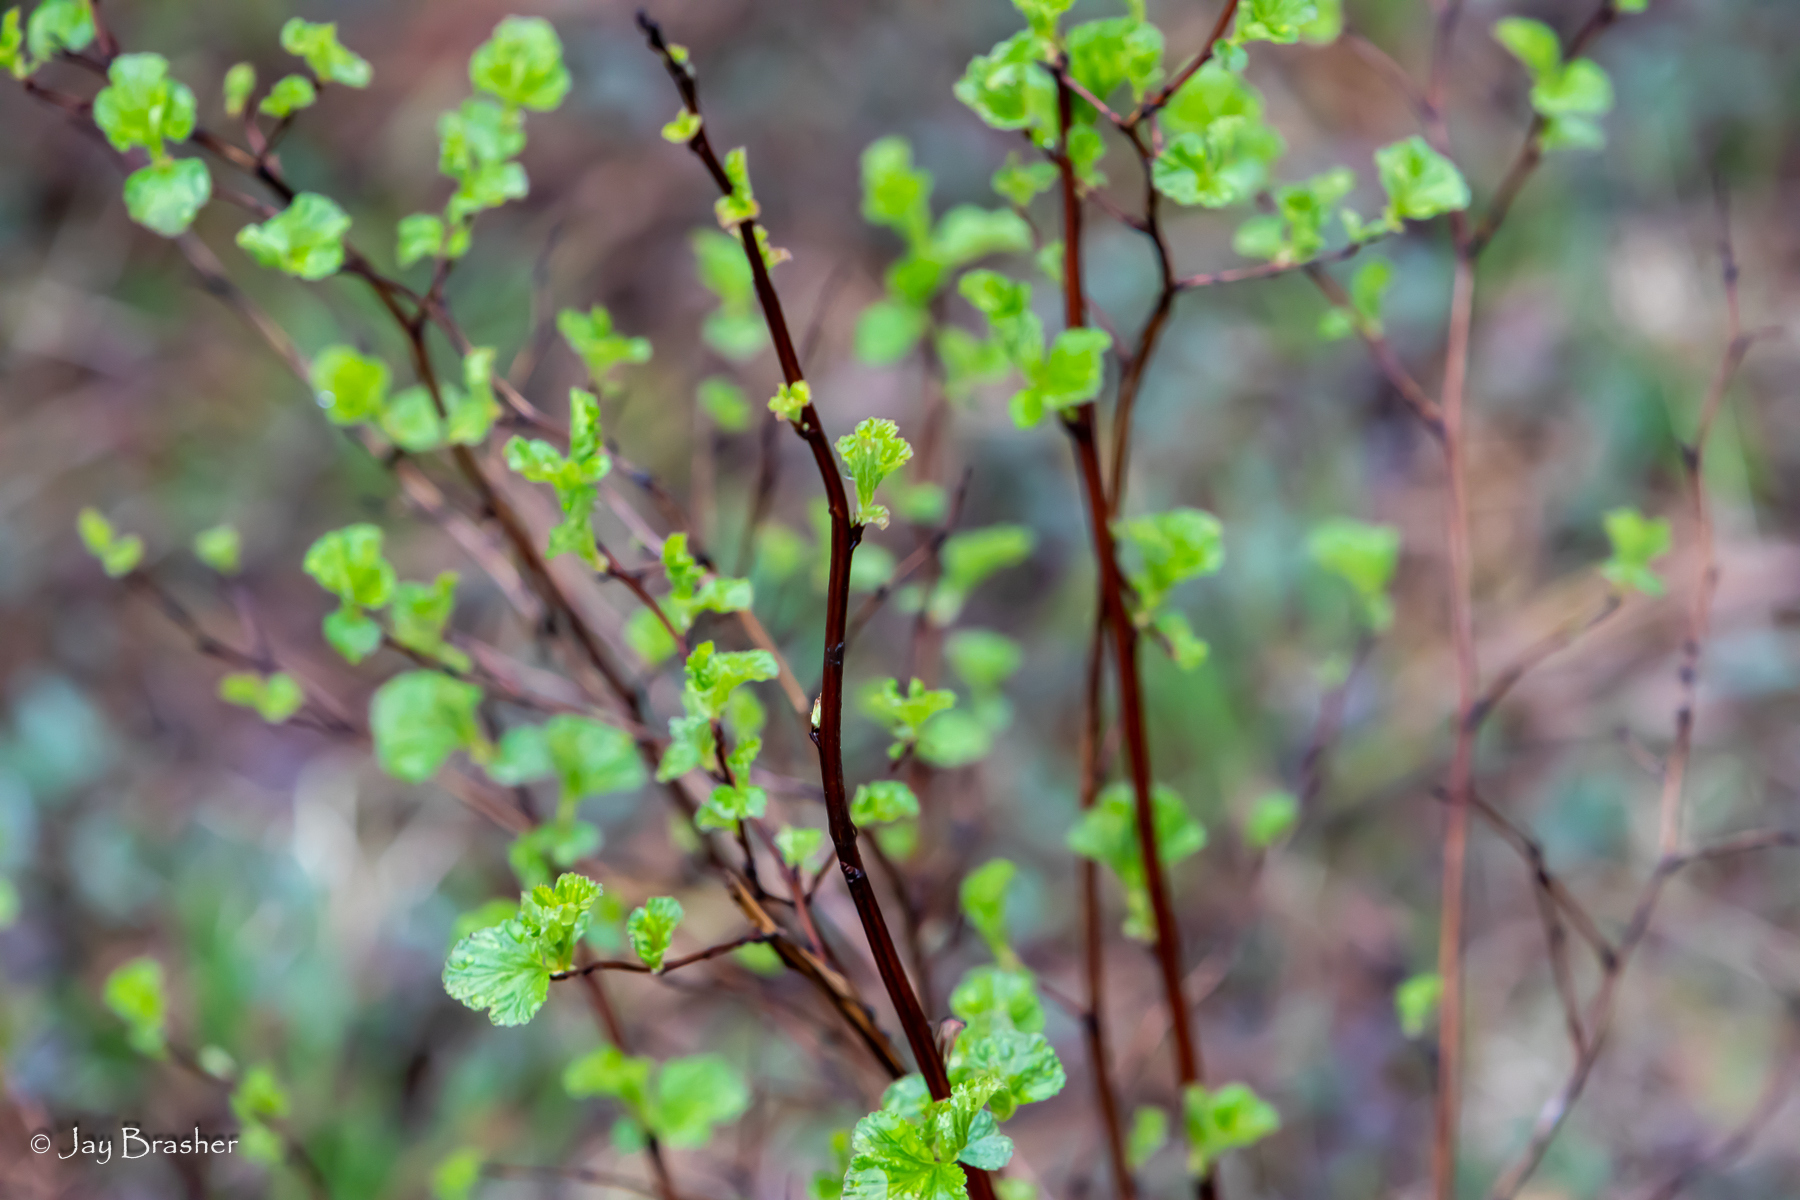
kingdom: Plantae
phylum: Tracheophyta
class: Magnoliopsida
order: Rosales
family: Rosaceae
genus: Physocarpus
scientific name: Physocarpus opulifolius
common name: Ninebark
